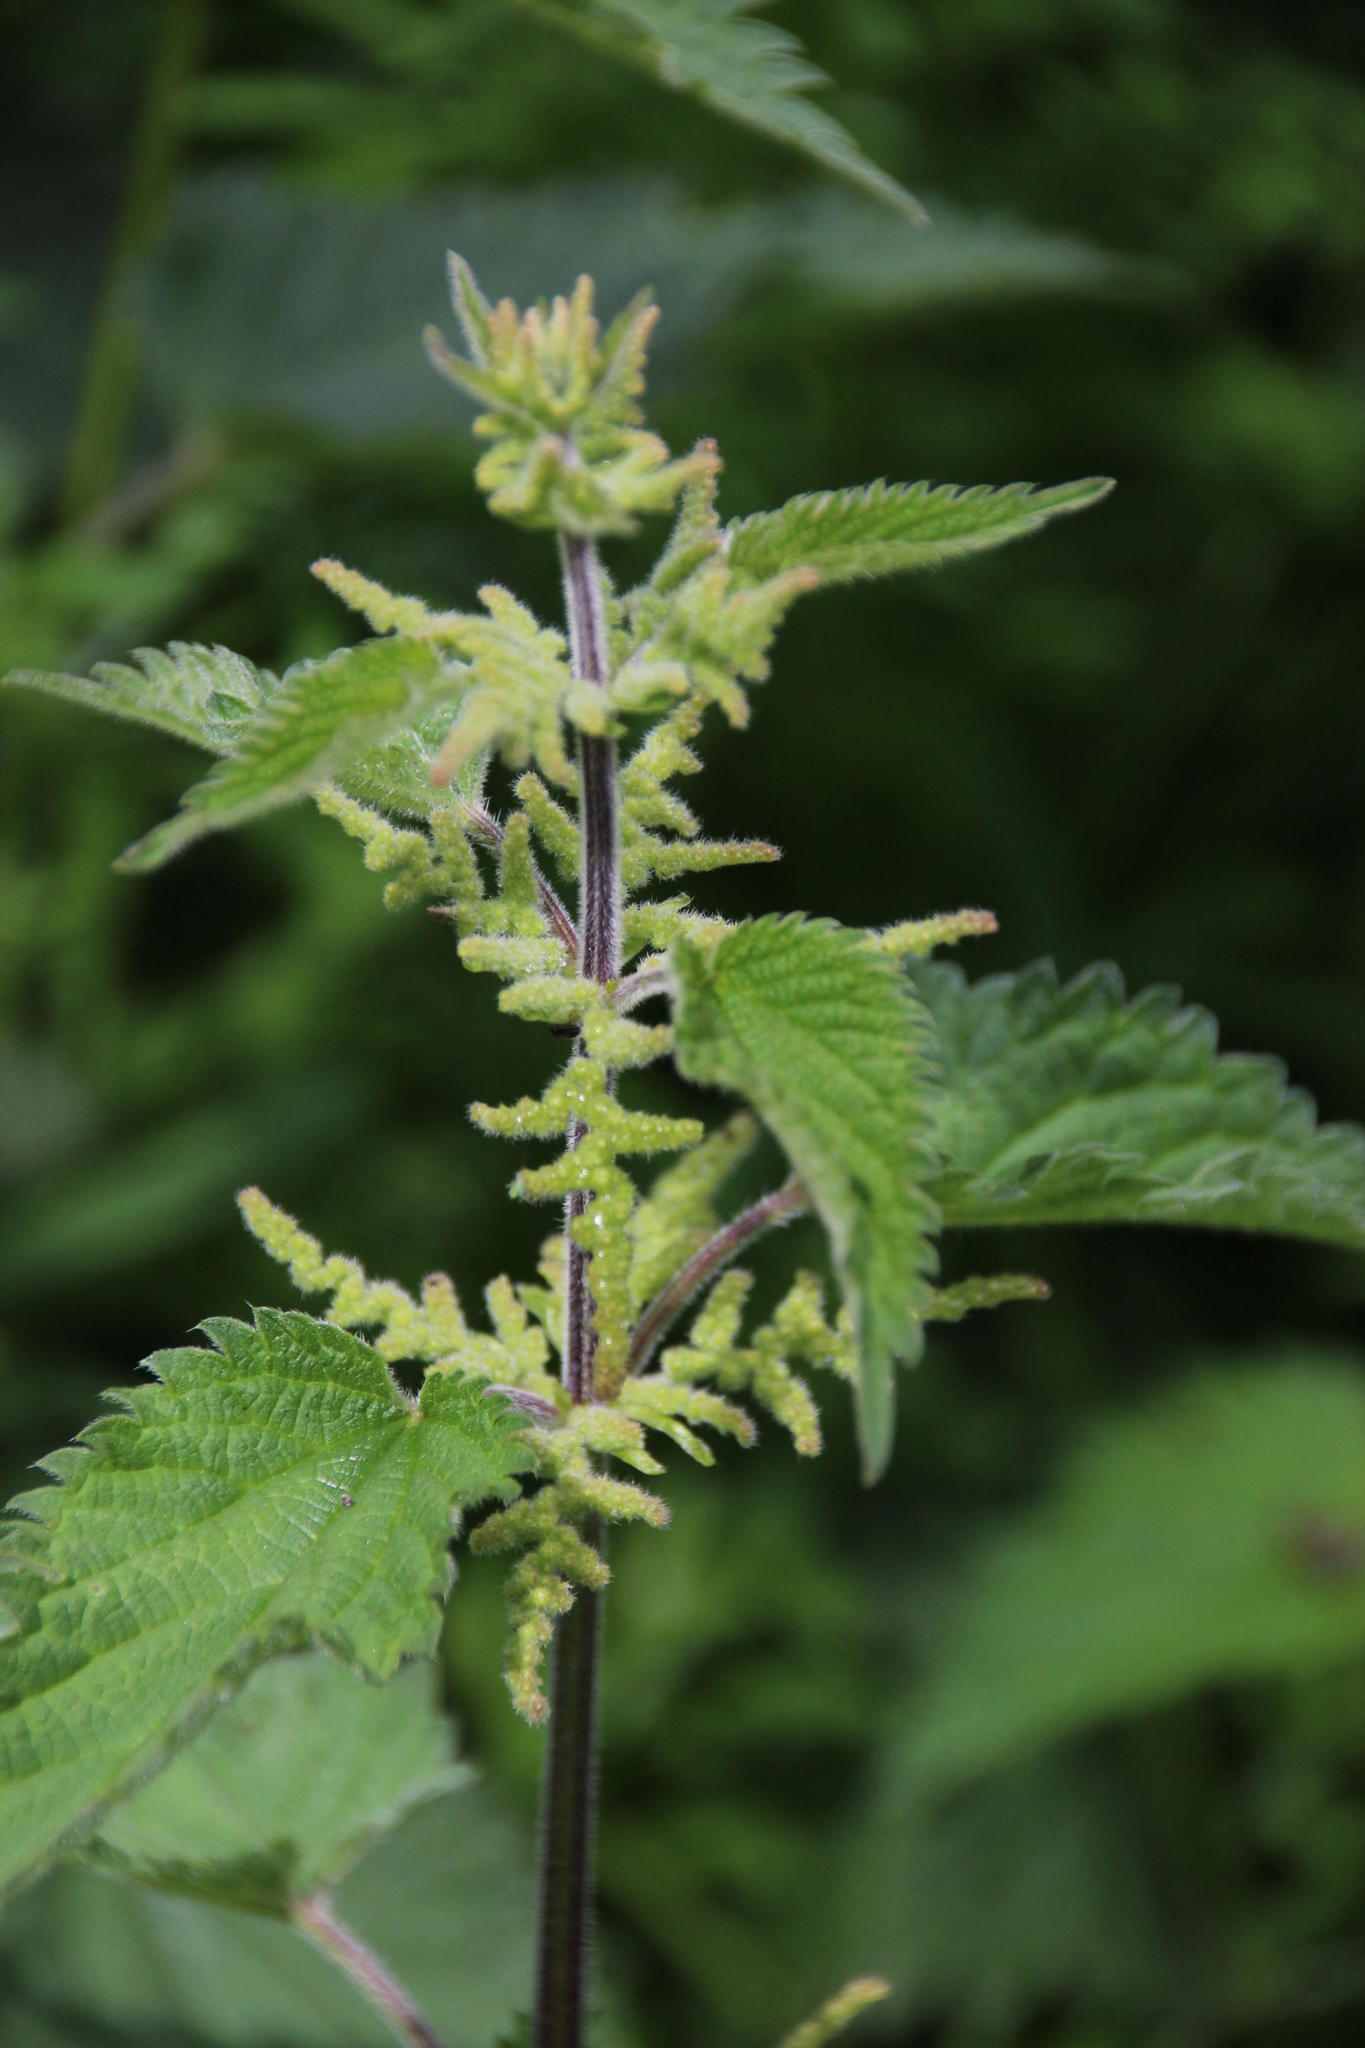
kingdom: Plantae
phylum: Tracheophyta
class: Magnoliopsida
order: Rosales
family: Urticaceae
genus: Urtica
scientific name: Urtica dioica
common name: Common nettle
